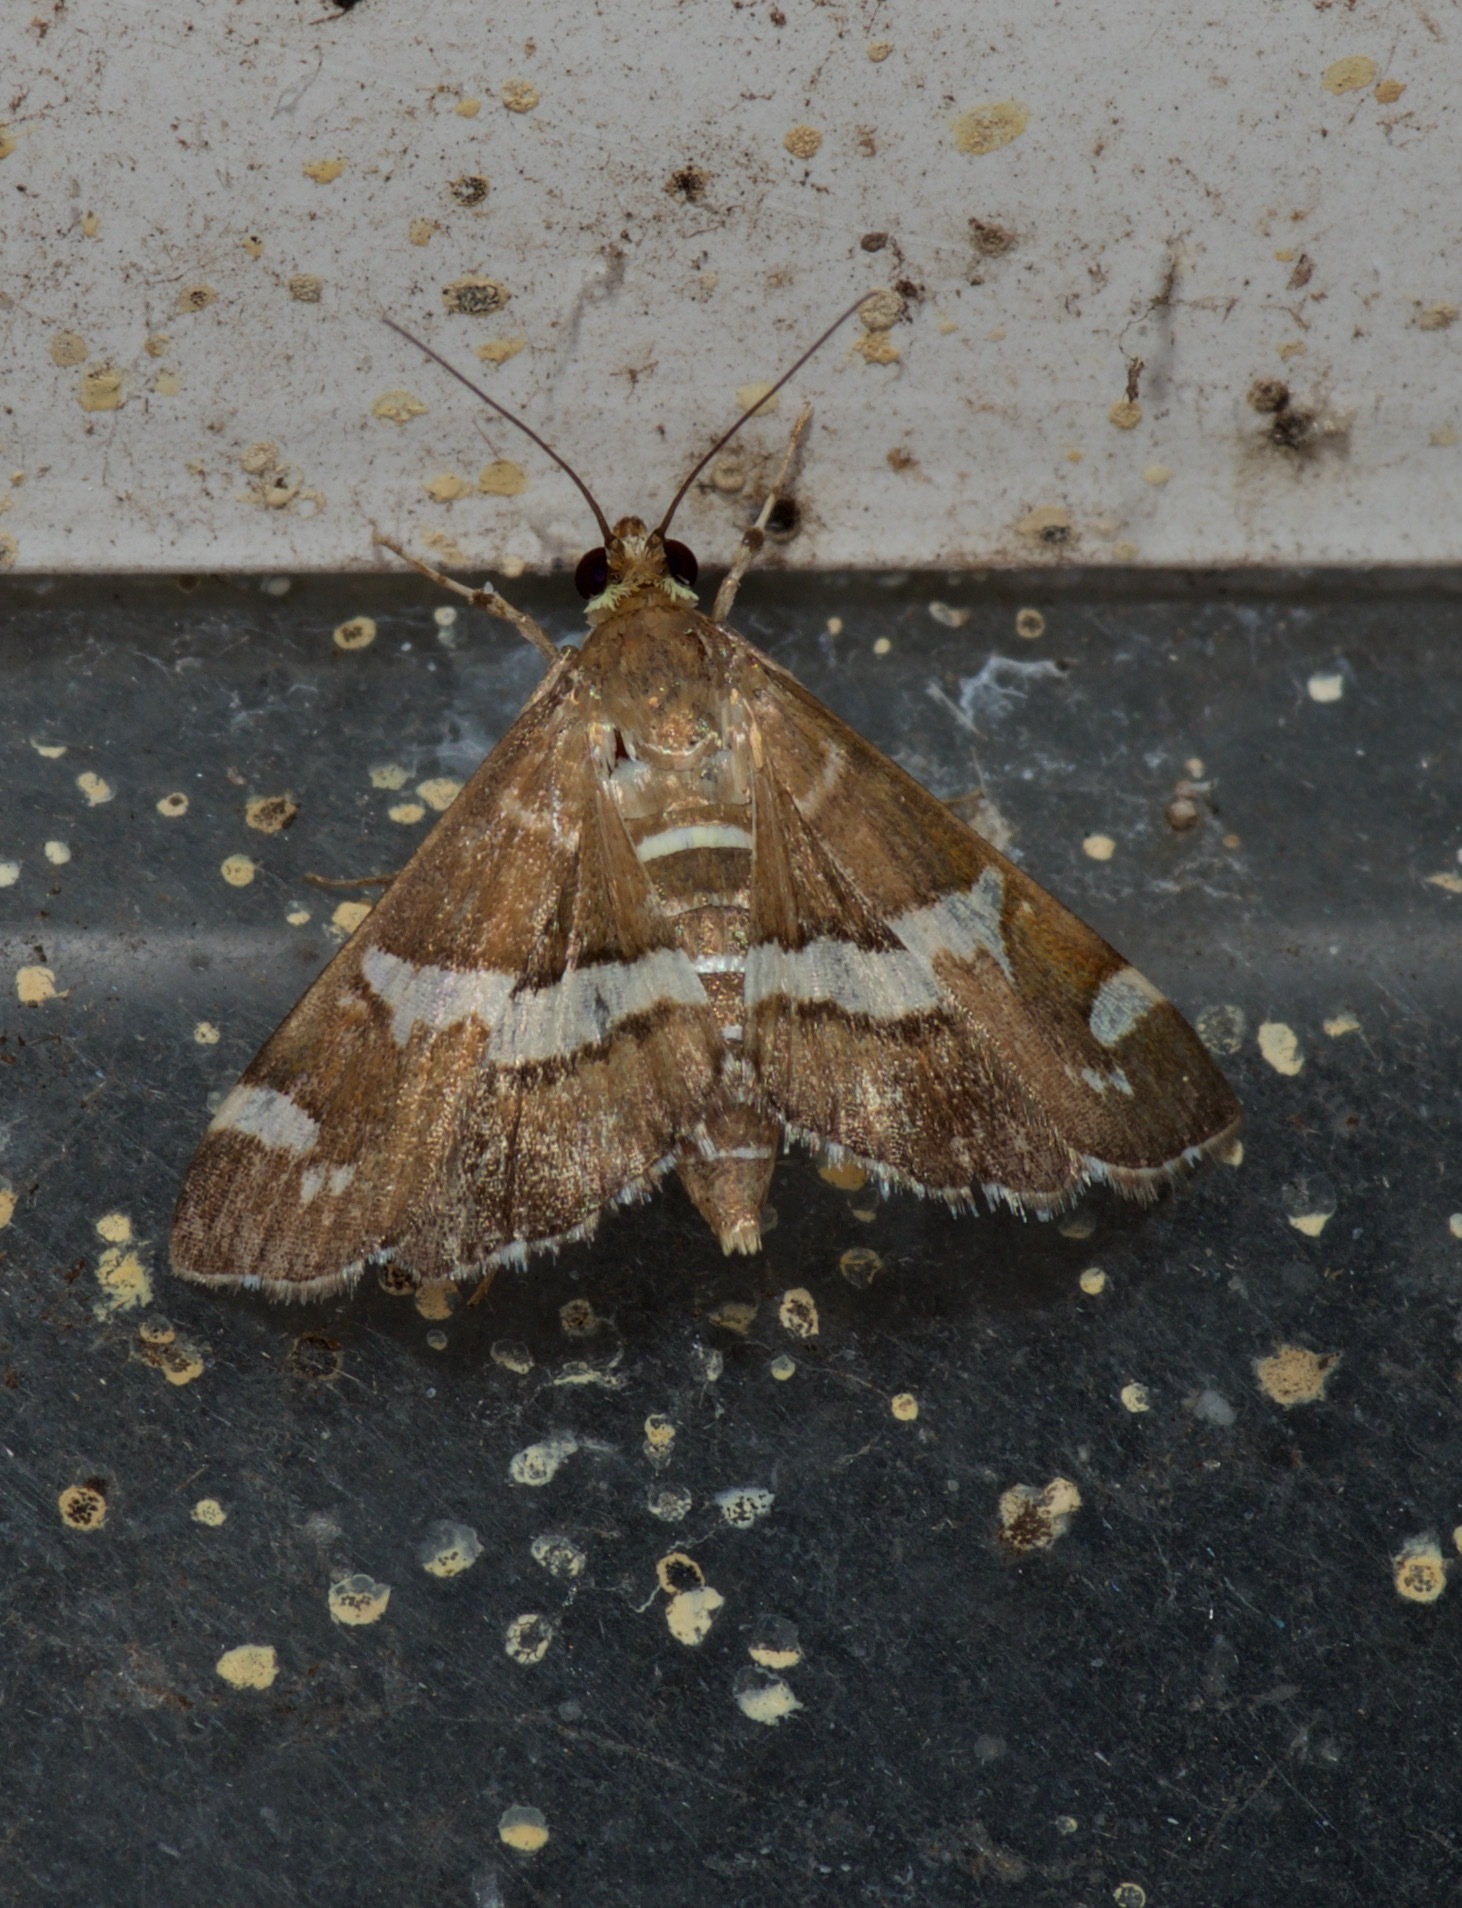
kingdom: Animalia
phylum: Arthropoda
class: Insecta
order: Lepidoptera
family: Crambidae
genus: Spoladea
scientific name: Spoladea recurvalis
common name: Beet webworm moth
